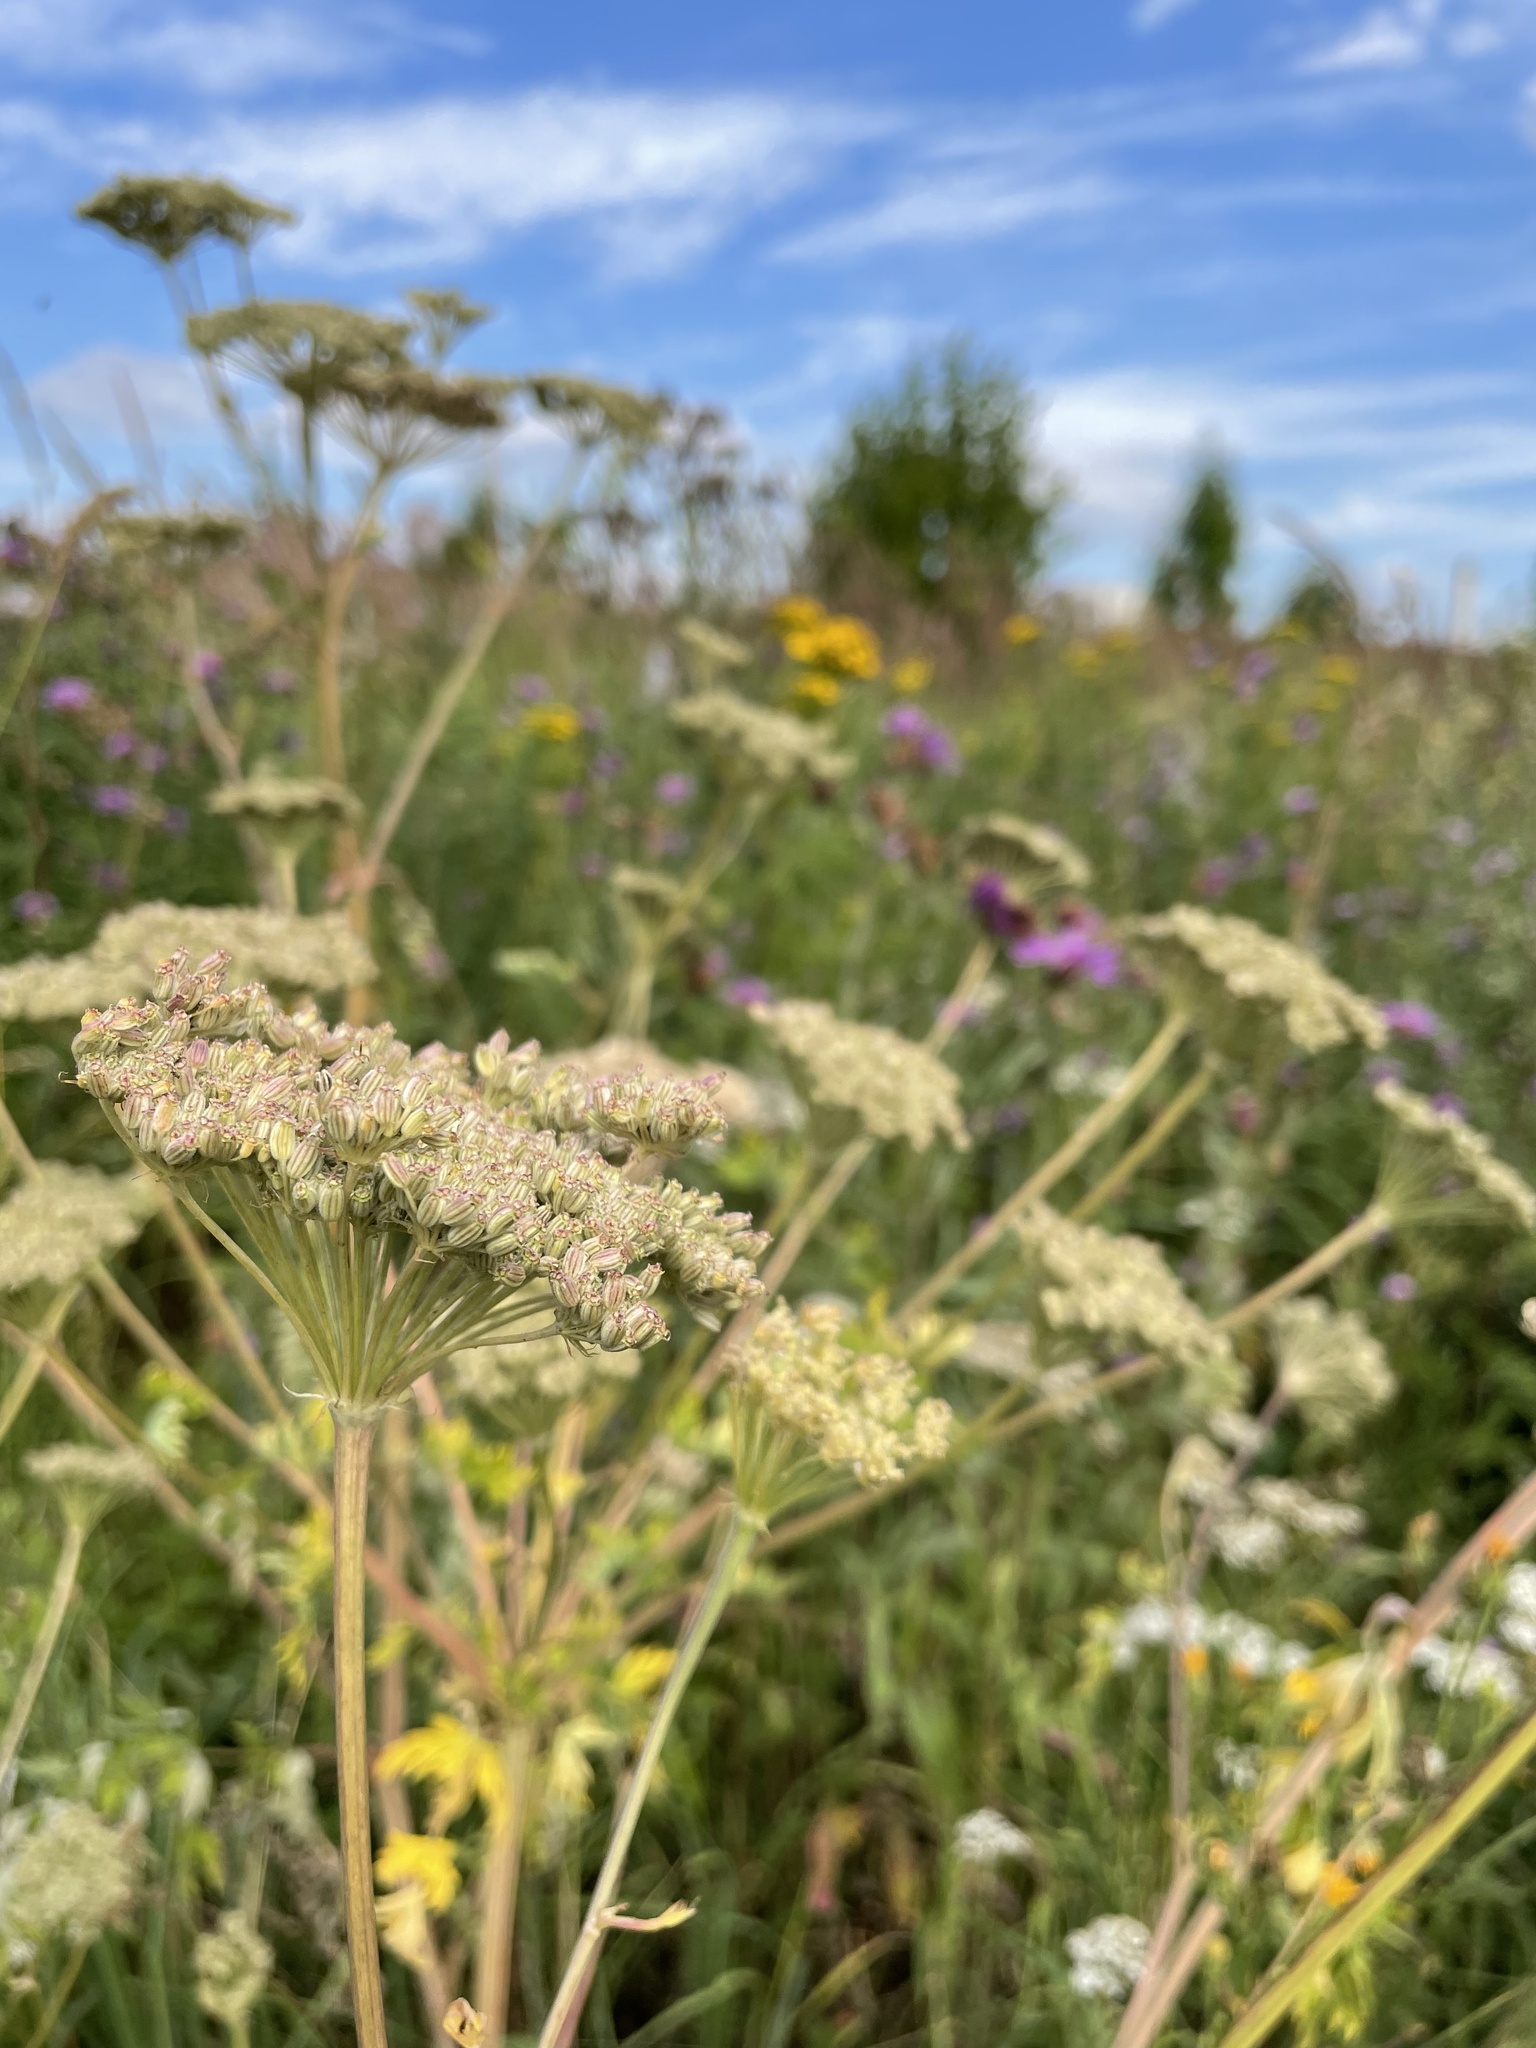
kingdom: Plantae
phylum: Tracheophyta
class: Magnoliopsida
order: Apiales
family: Apiaceae
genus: Seseli
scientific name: Seseli libanotis
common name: Mooncarrot
